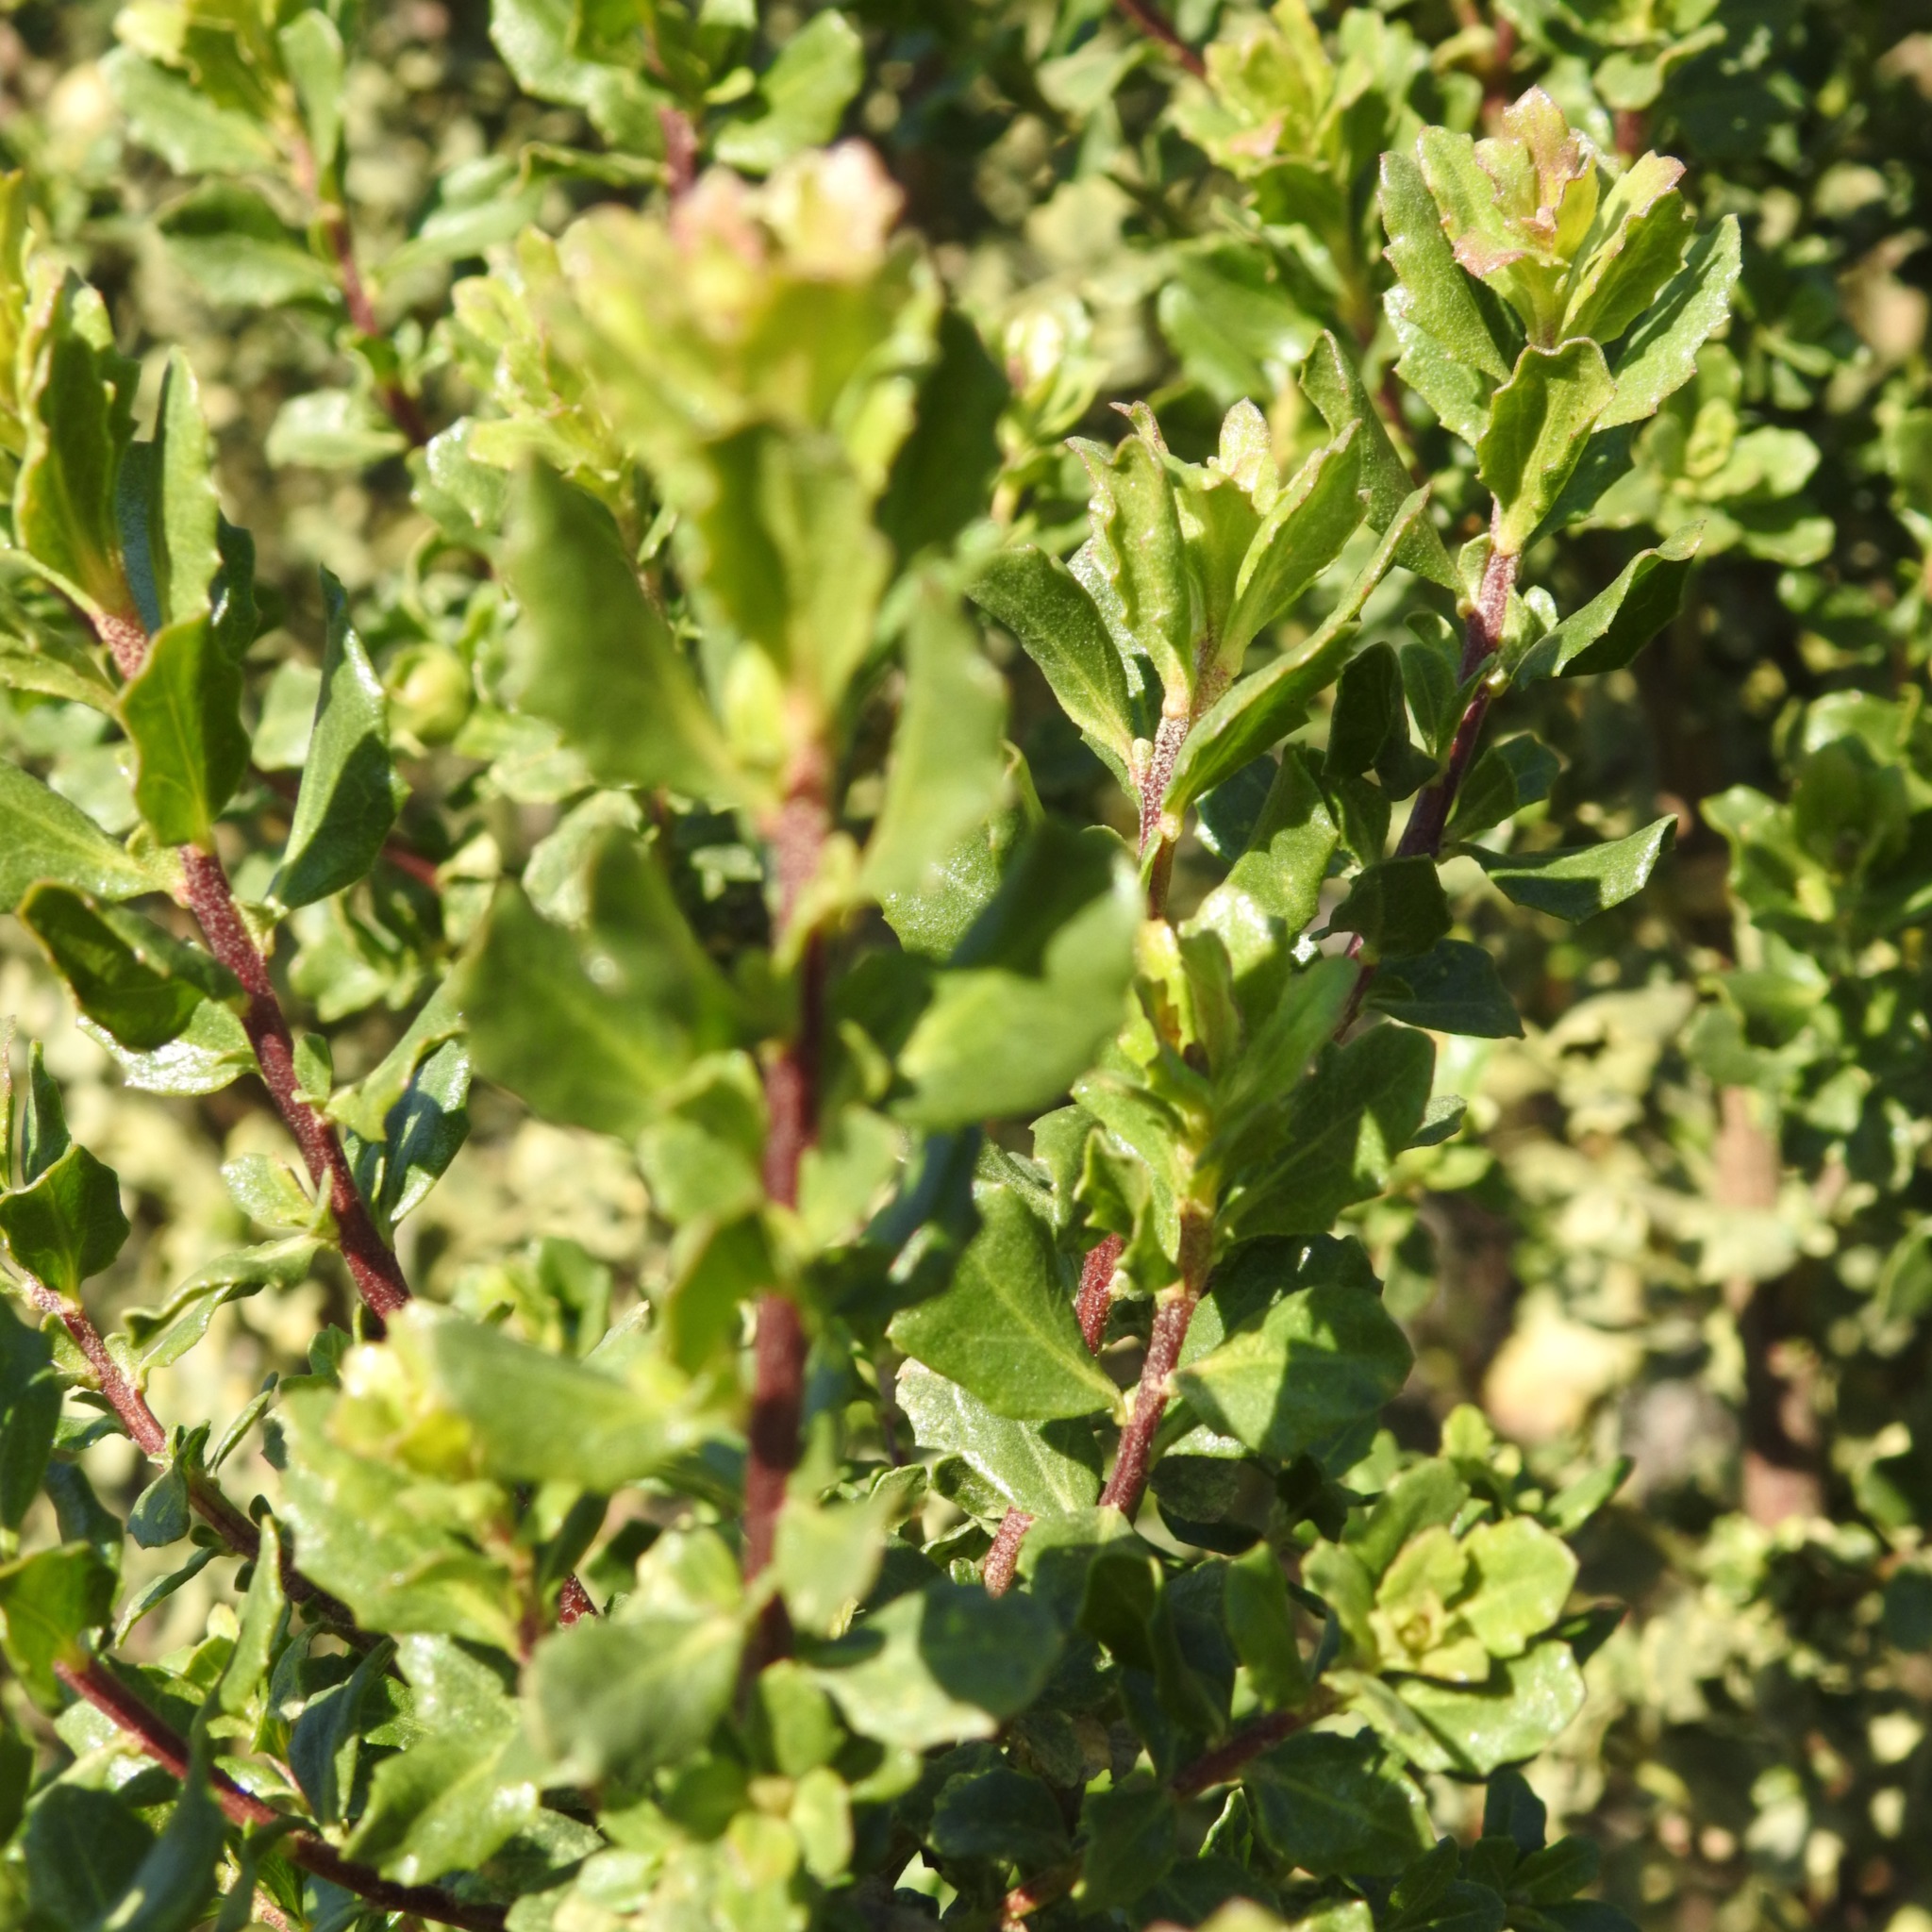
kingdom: Plantae
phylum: Tracheophyta
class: Magnoliopsida
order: Asterales
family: Asteraceae
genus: Baccharis
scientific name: Baccharis pilularis
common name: Coyotebrush
